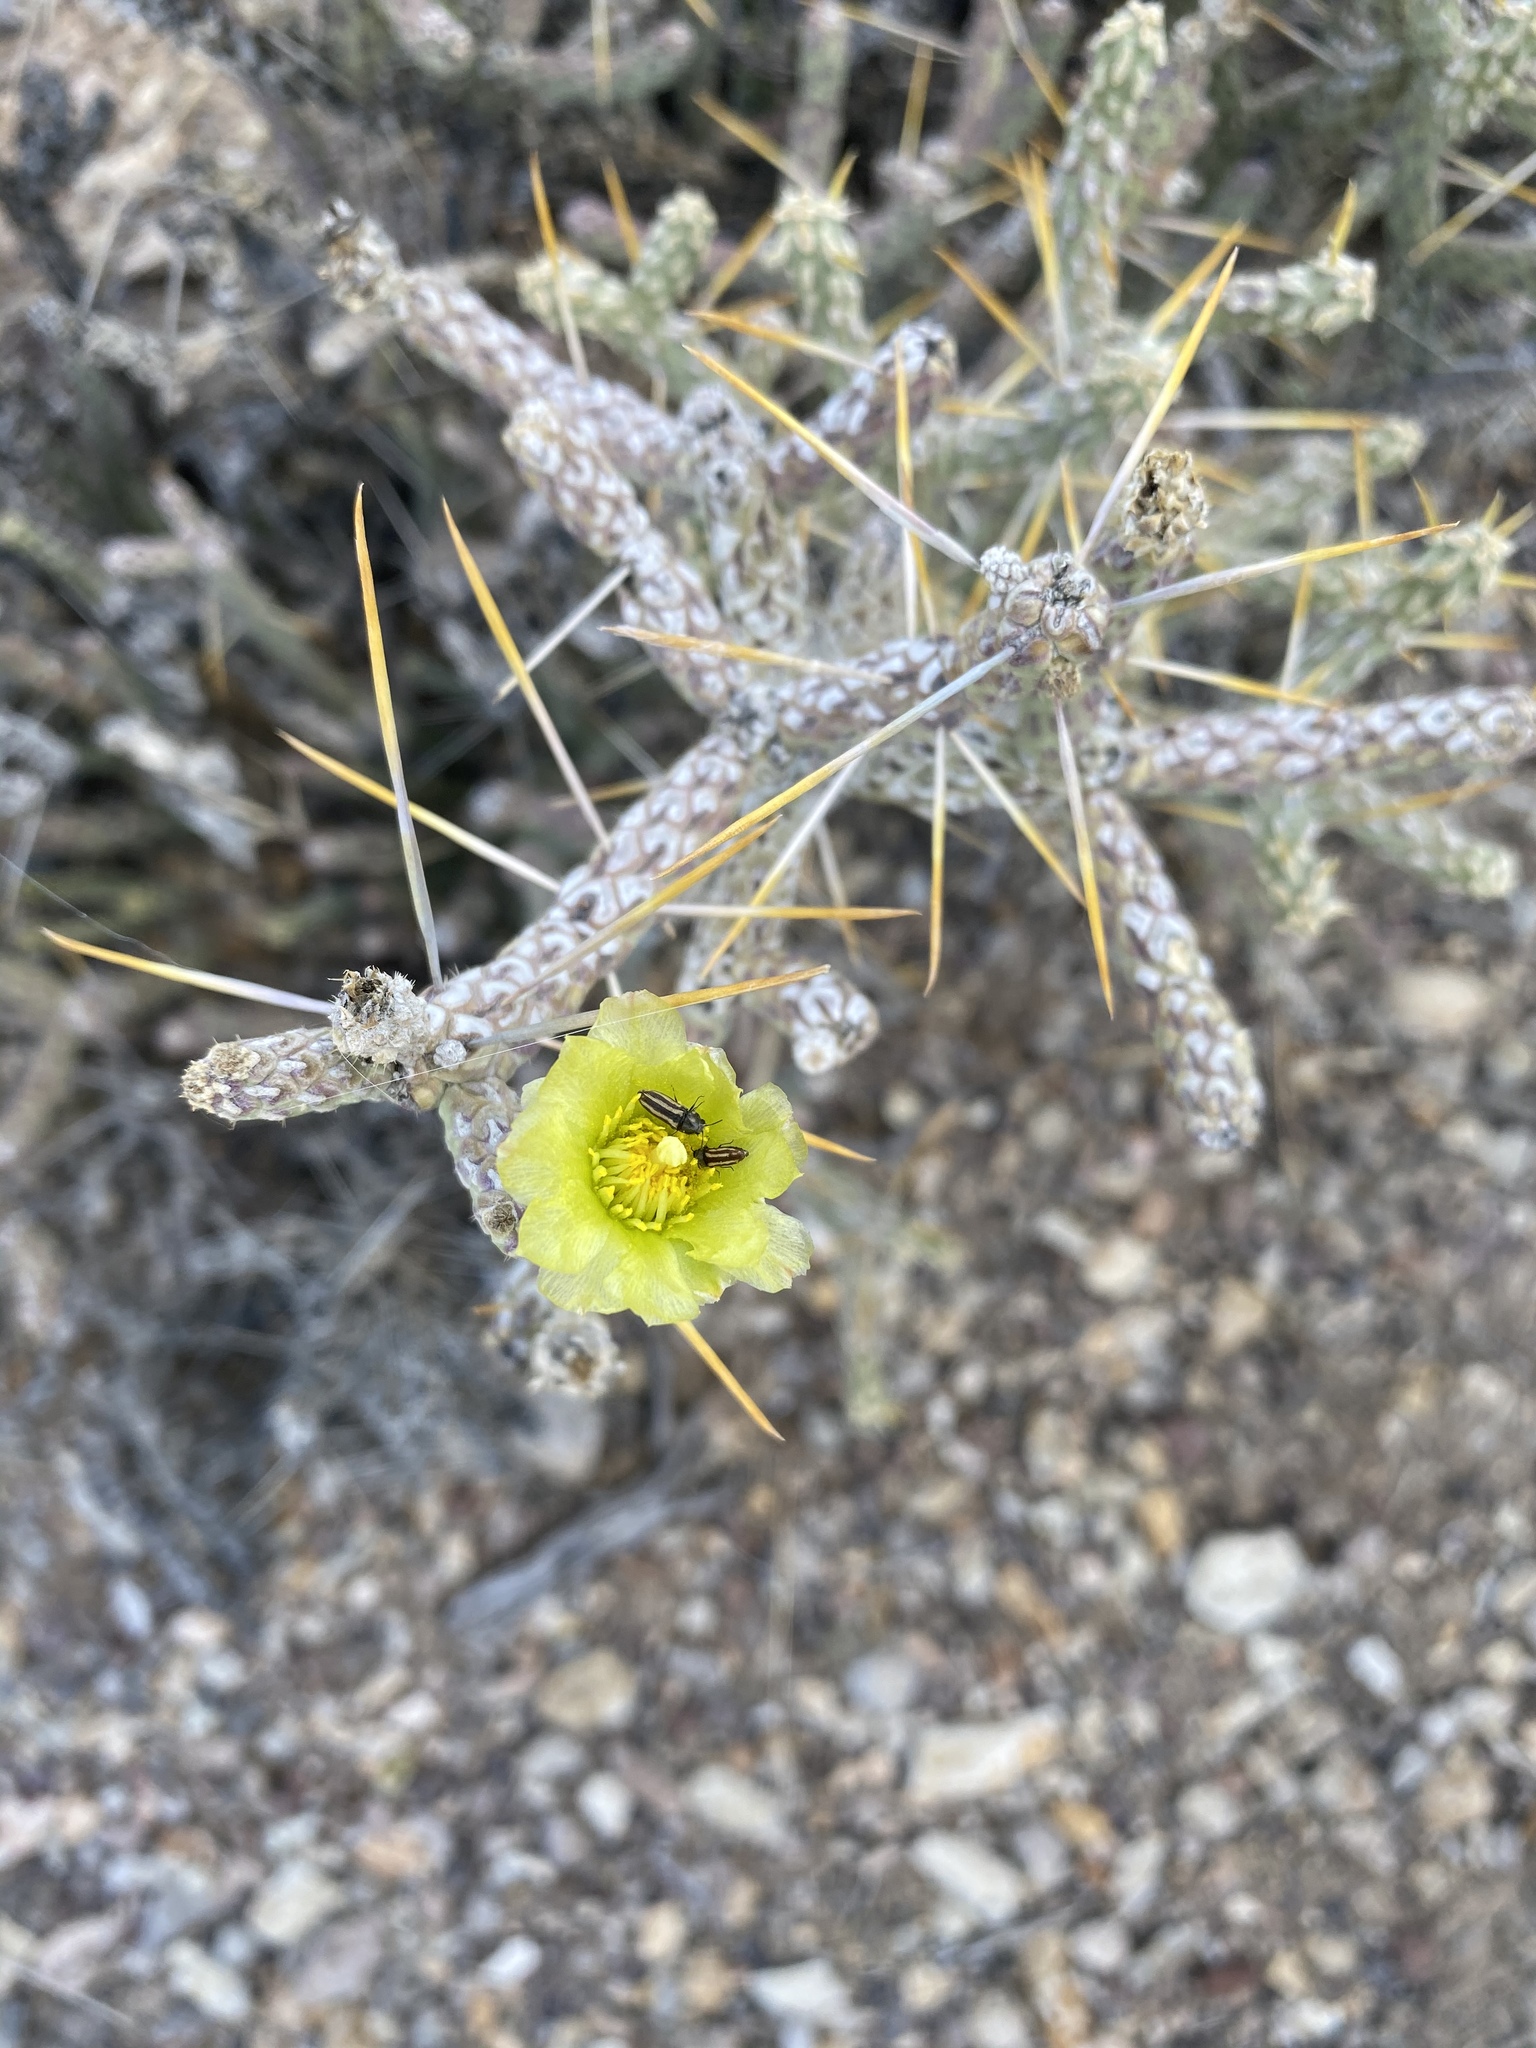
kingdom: Plantae
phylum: Tracheophyta
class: Magnoliopsida
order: Caryophyllales
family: Cactaceae
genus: Cylindropuntia
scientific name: Cylindropuntia ramosissima
